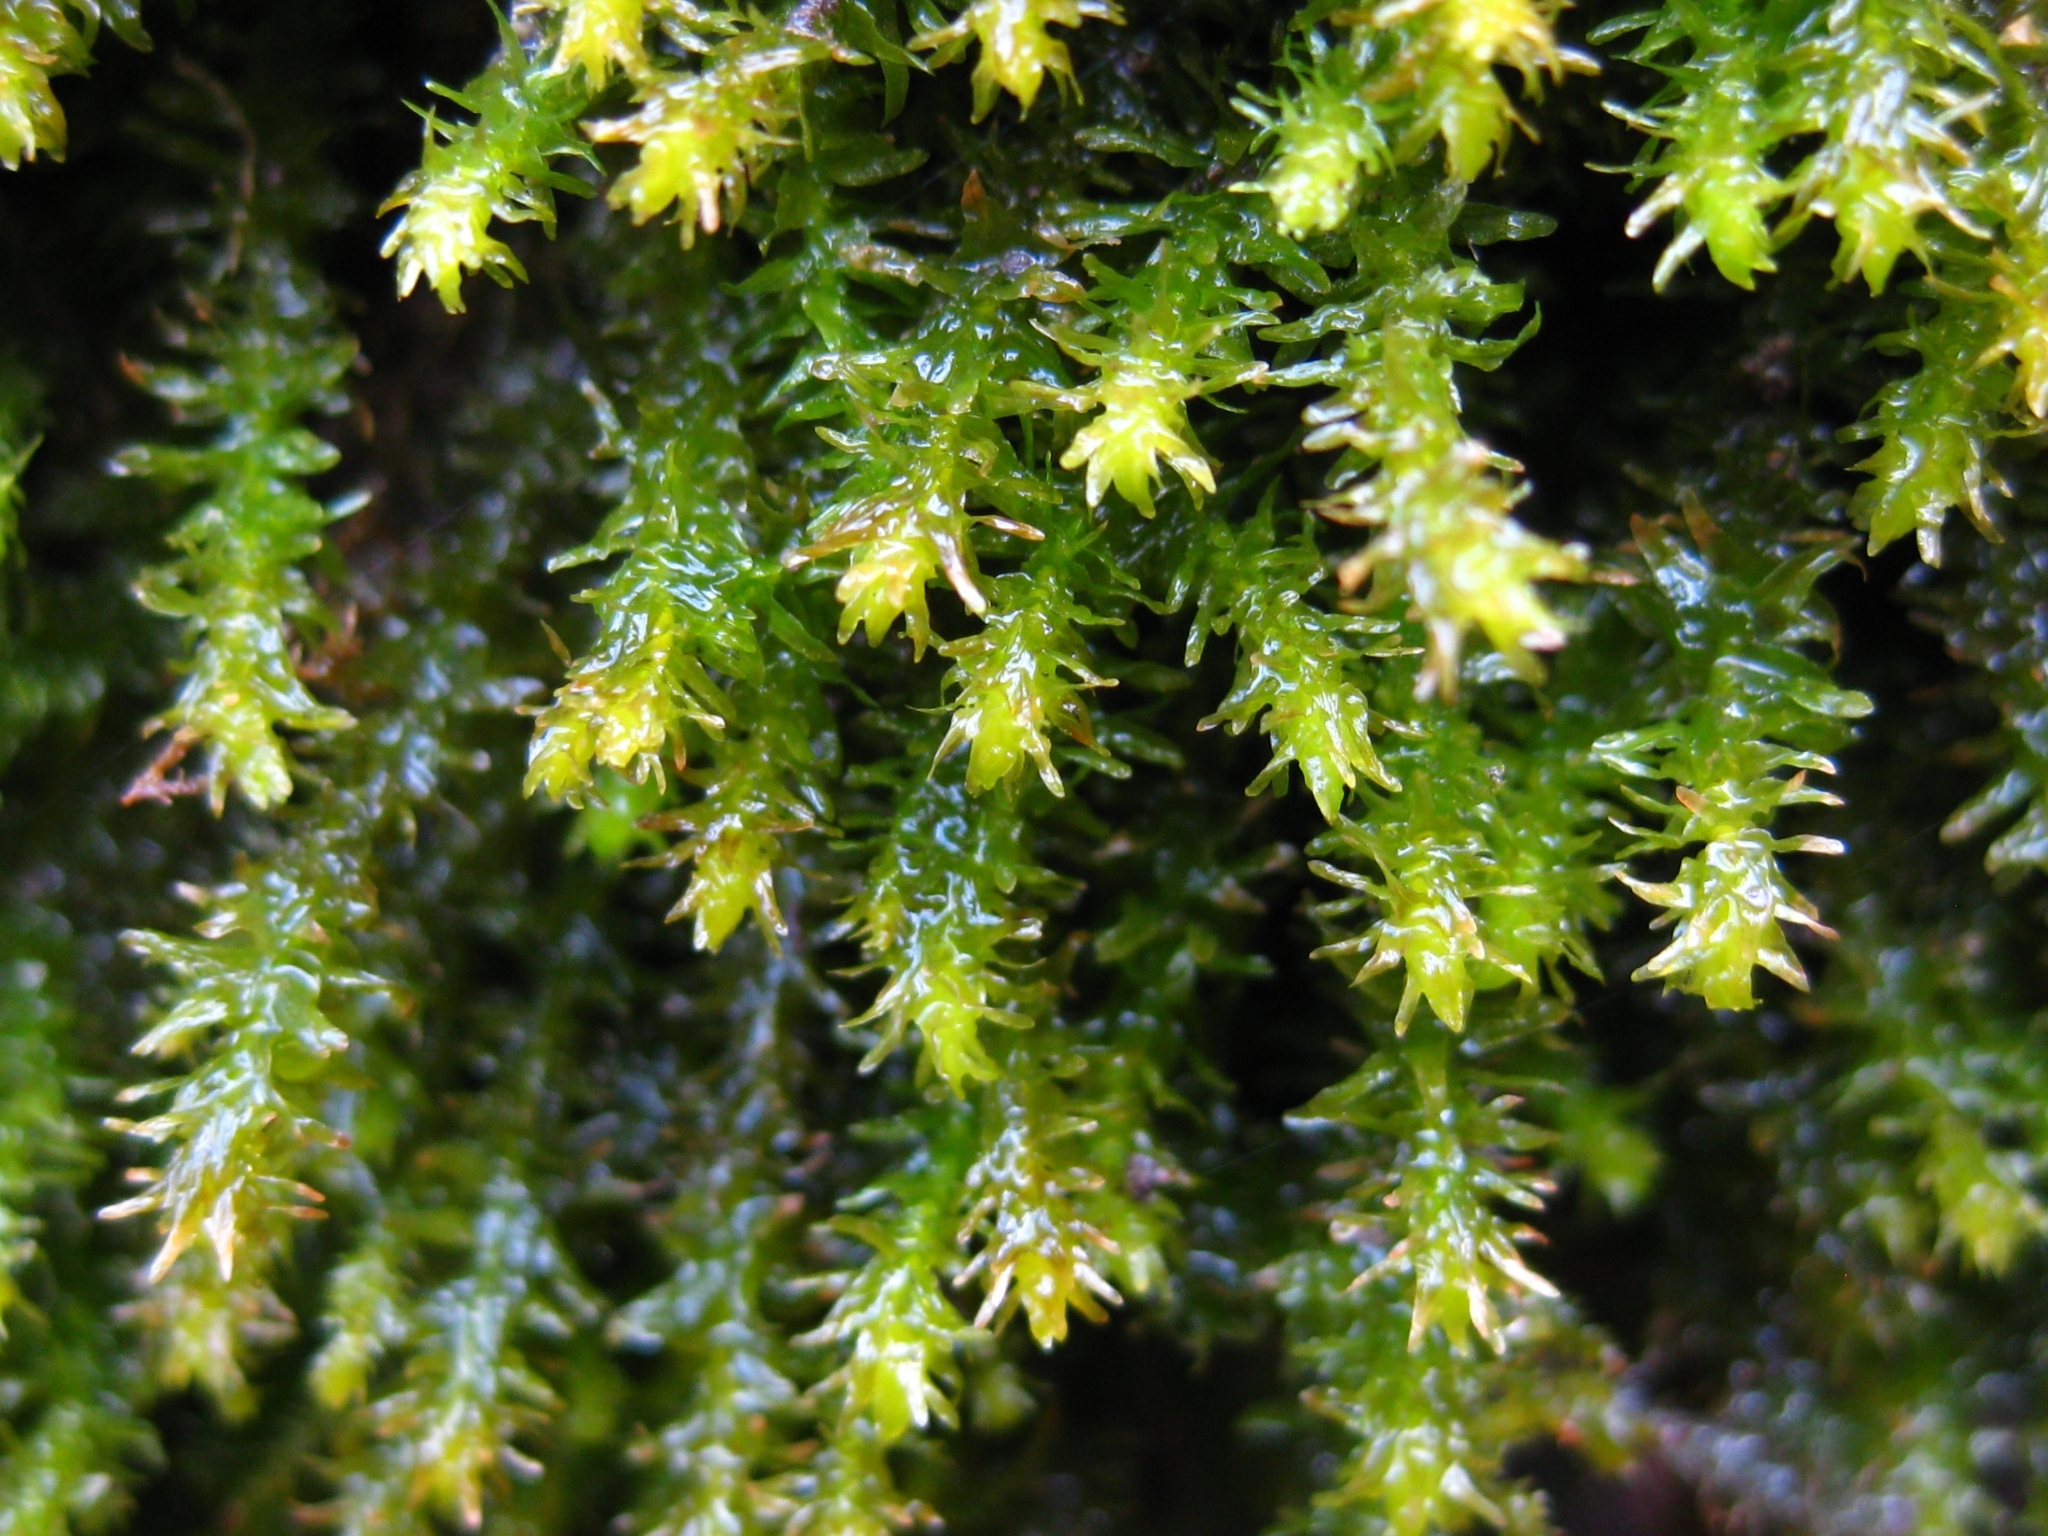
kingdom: Plantae
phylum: Bryophyta
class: Bryopsida
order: Hypnales
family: Anomodontaceae
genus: Anomodon
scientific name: Anomodon viticulosus
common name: Tall anomodon
